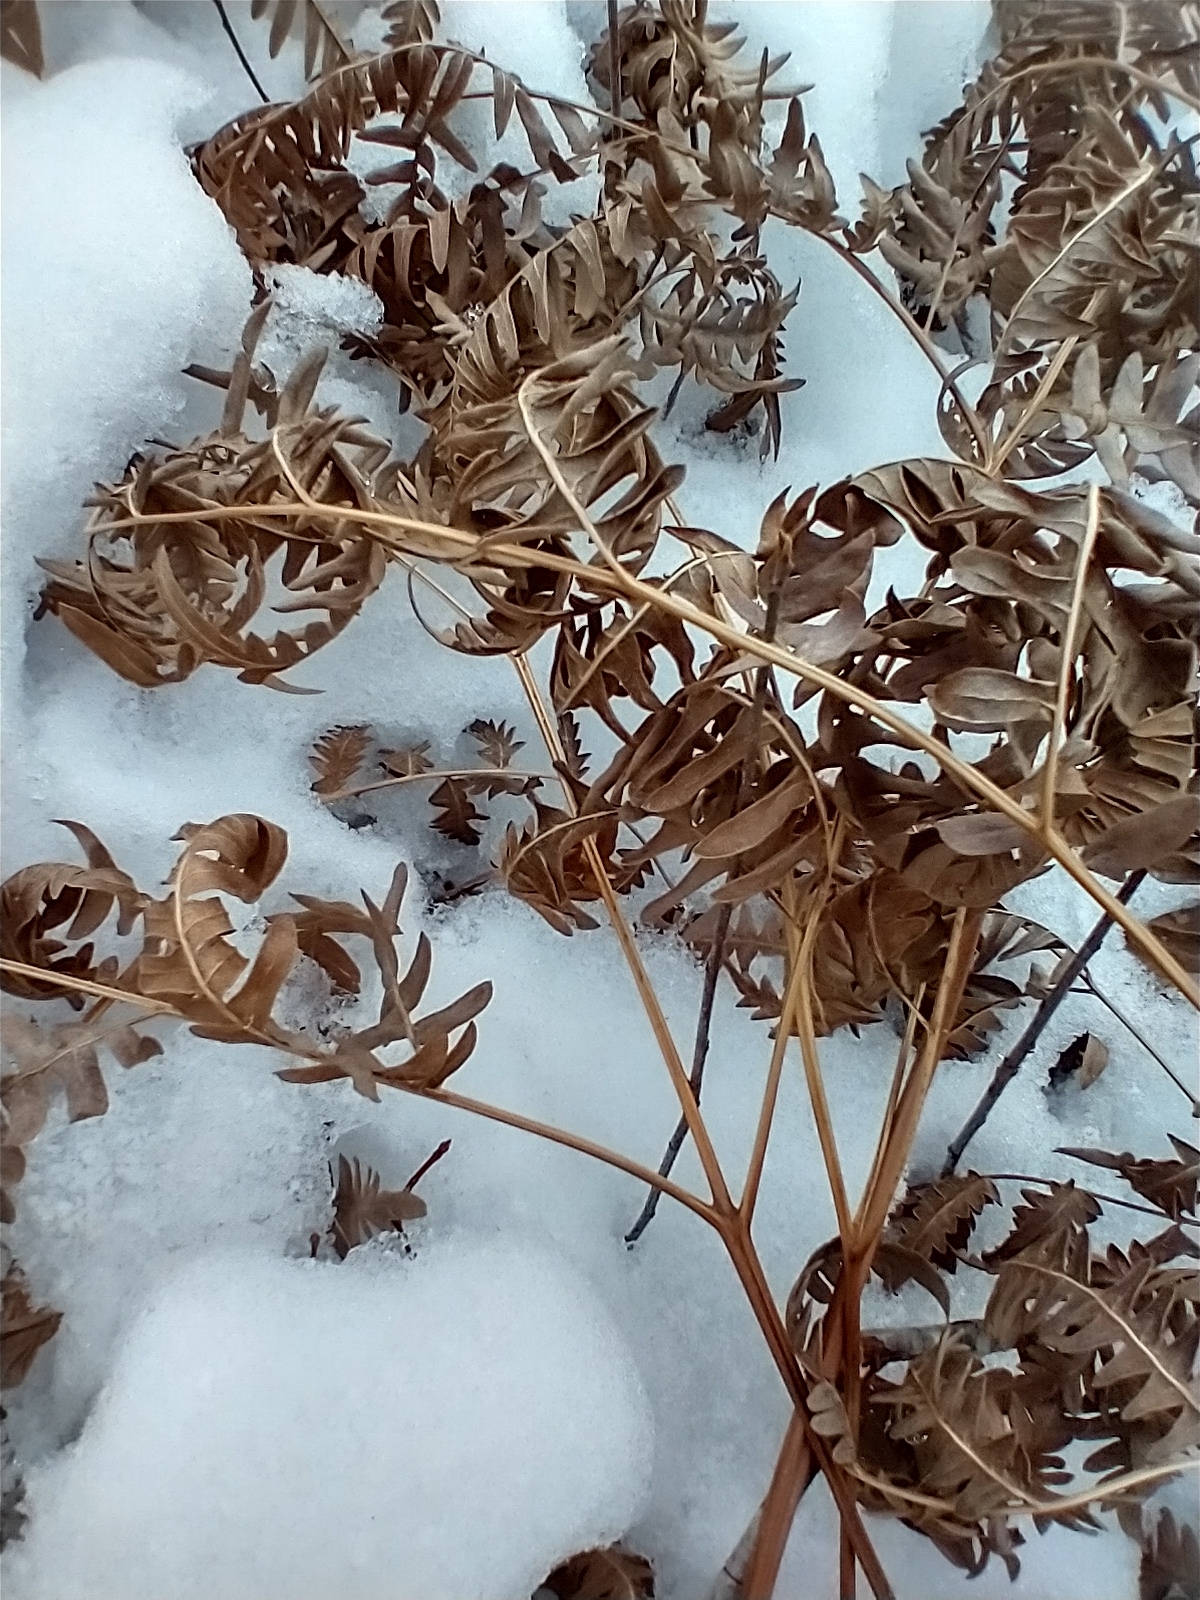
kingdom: Plantae
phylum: Tracheophyta
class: Polypodiopsida
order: Polypodiales
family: Dennstaedtiaceae
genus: Pteridium
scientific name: Pteridium aquilinum
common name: Bracken
